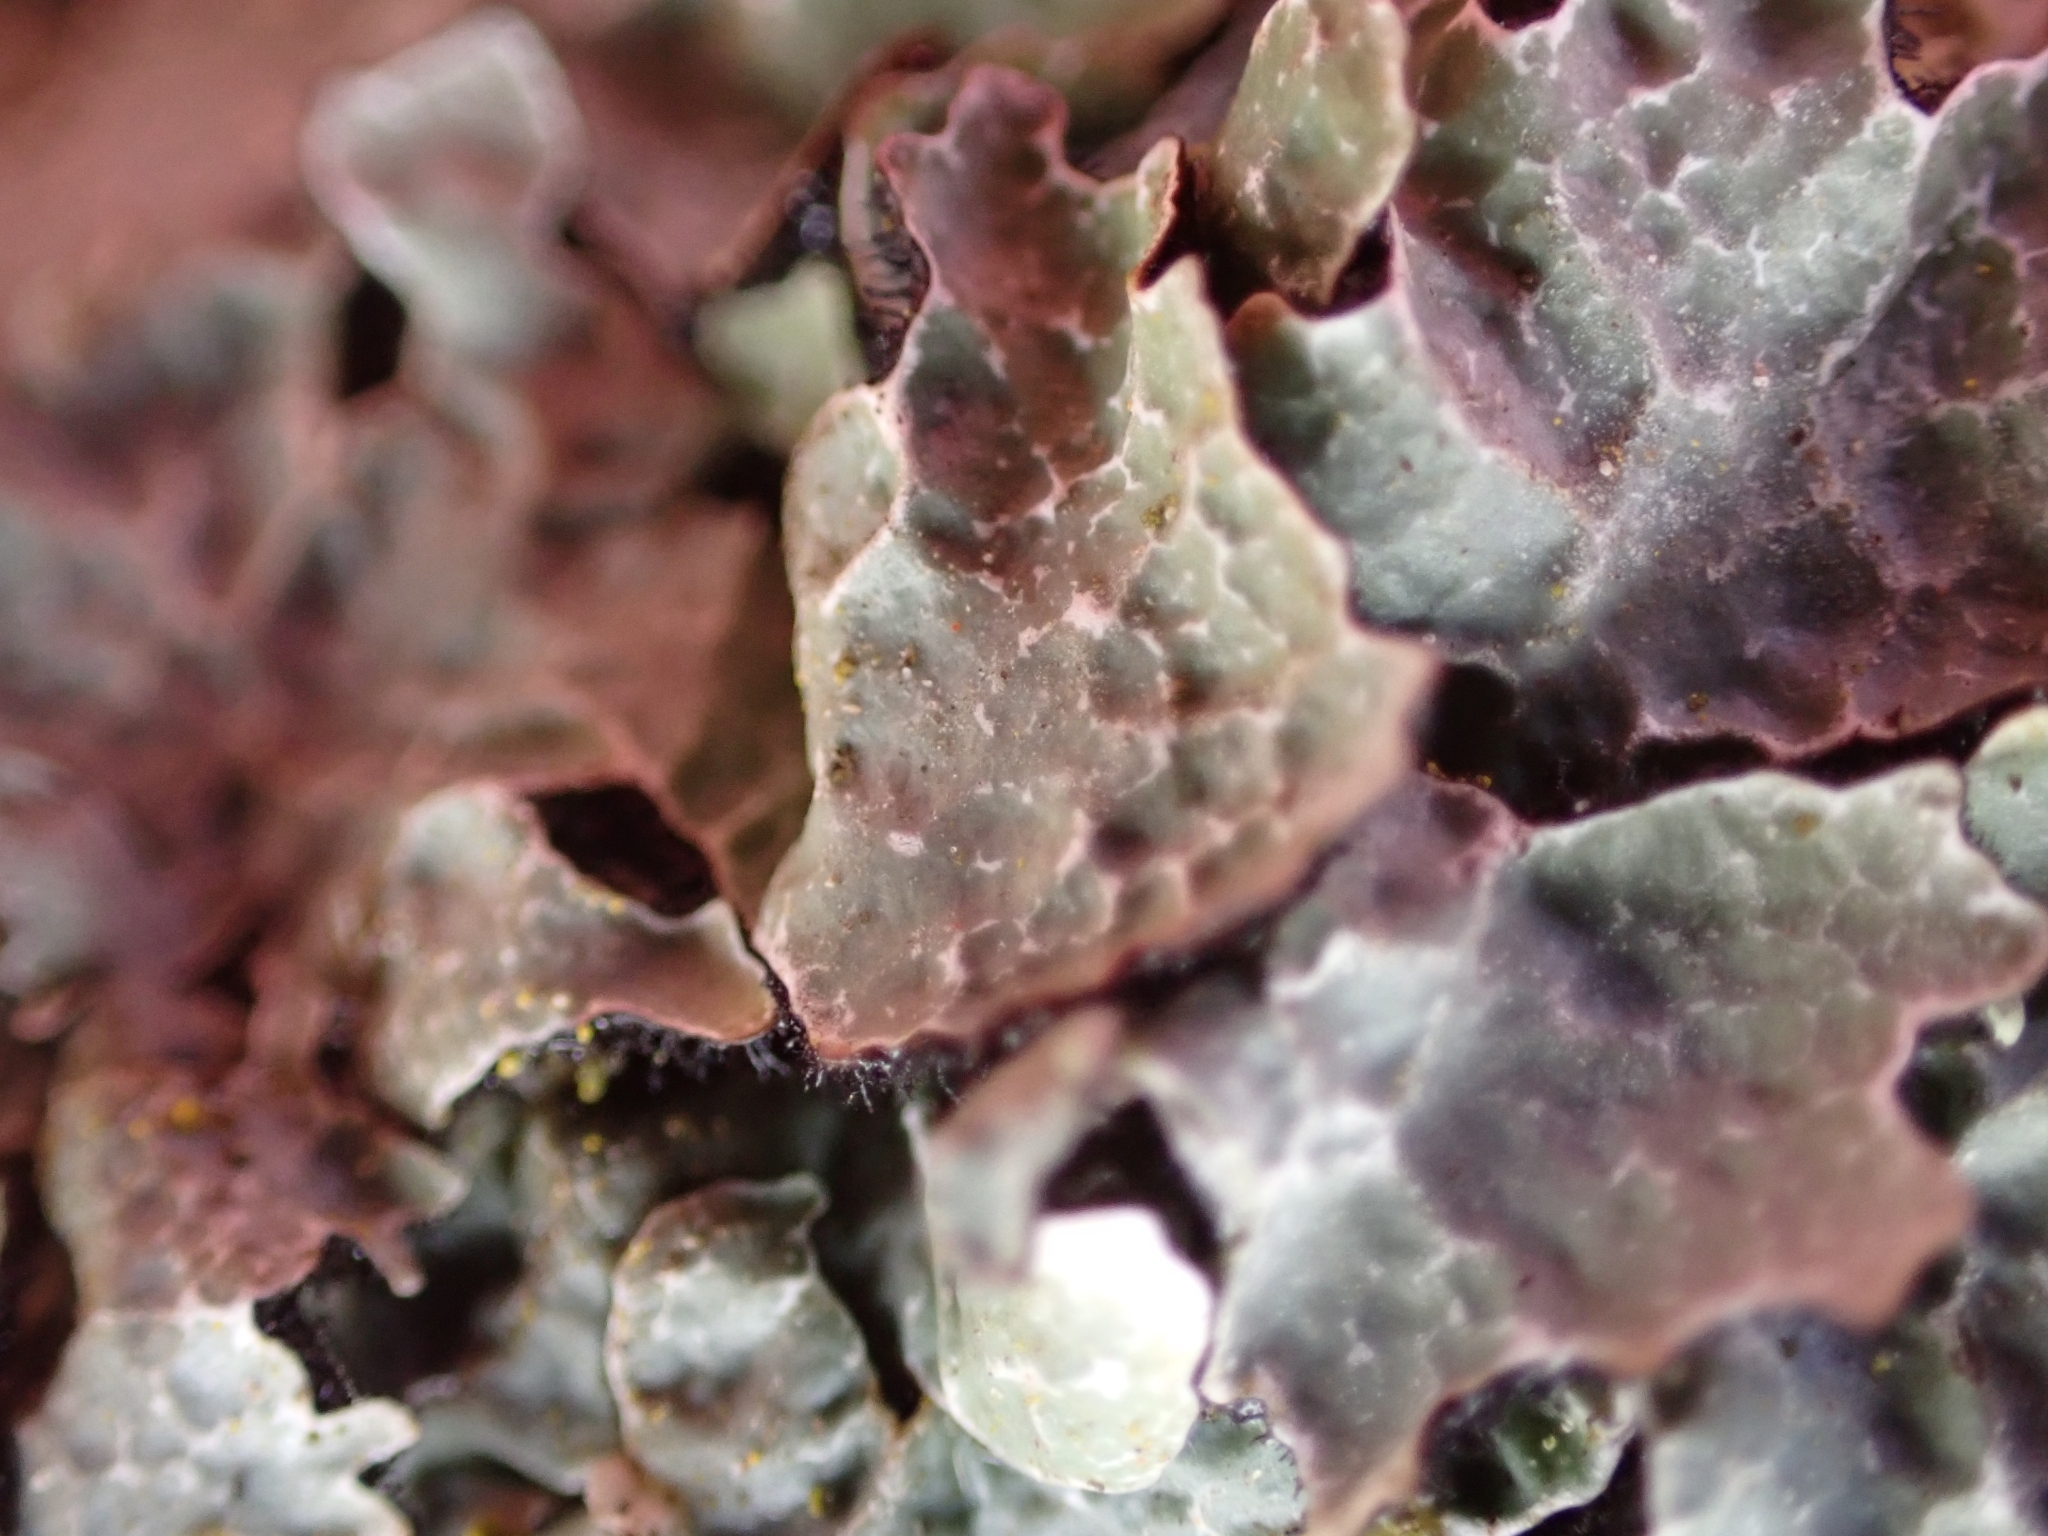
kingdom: Fungi
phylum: Ascomycota
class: Lecanoromycetes
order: Lecanorales
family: Parmeliaceae
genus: Parmelia
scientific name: Parmelia sulcata
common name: Netted shield lichen
